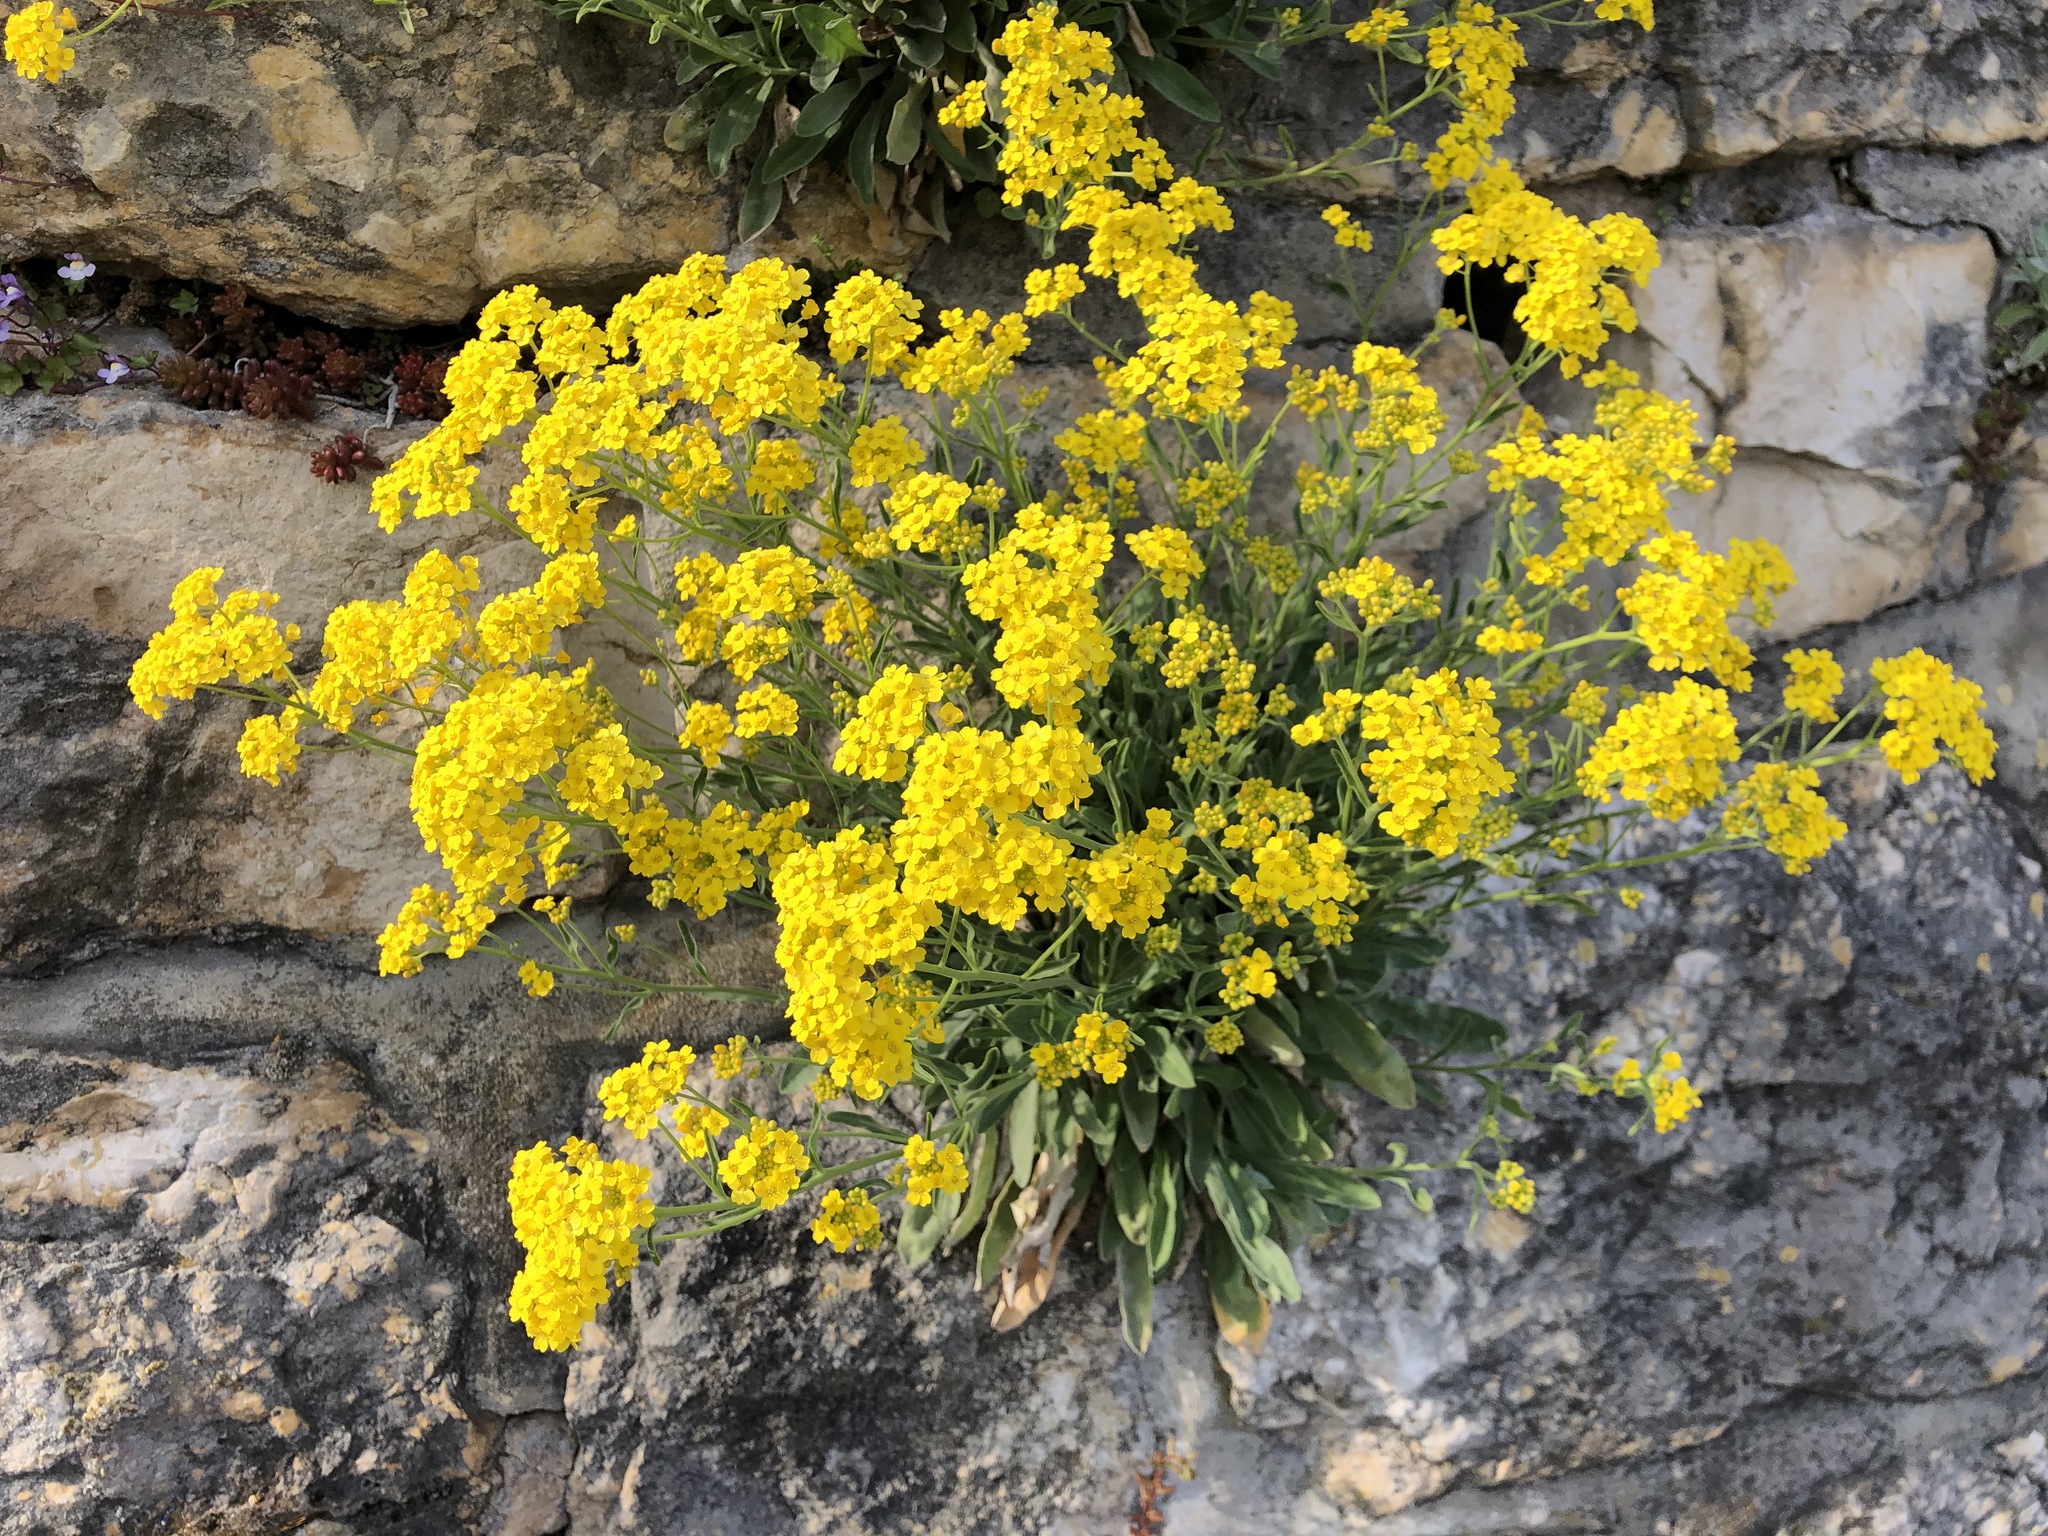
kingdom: Plantae
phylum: Tracheophyta
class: Magnoliopsida
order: Brassicales
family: Brassicaceae
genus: Aurinia
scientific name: Aurinia saxatilis
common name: Golden-tuft alyssum
